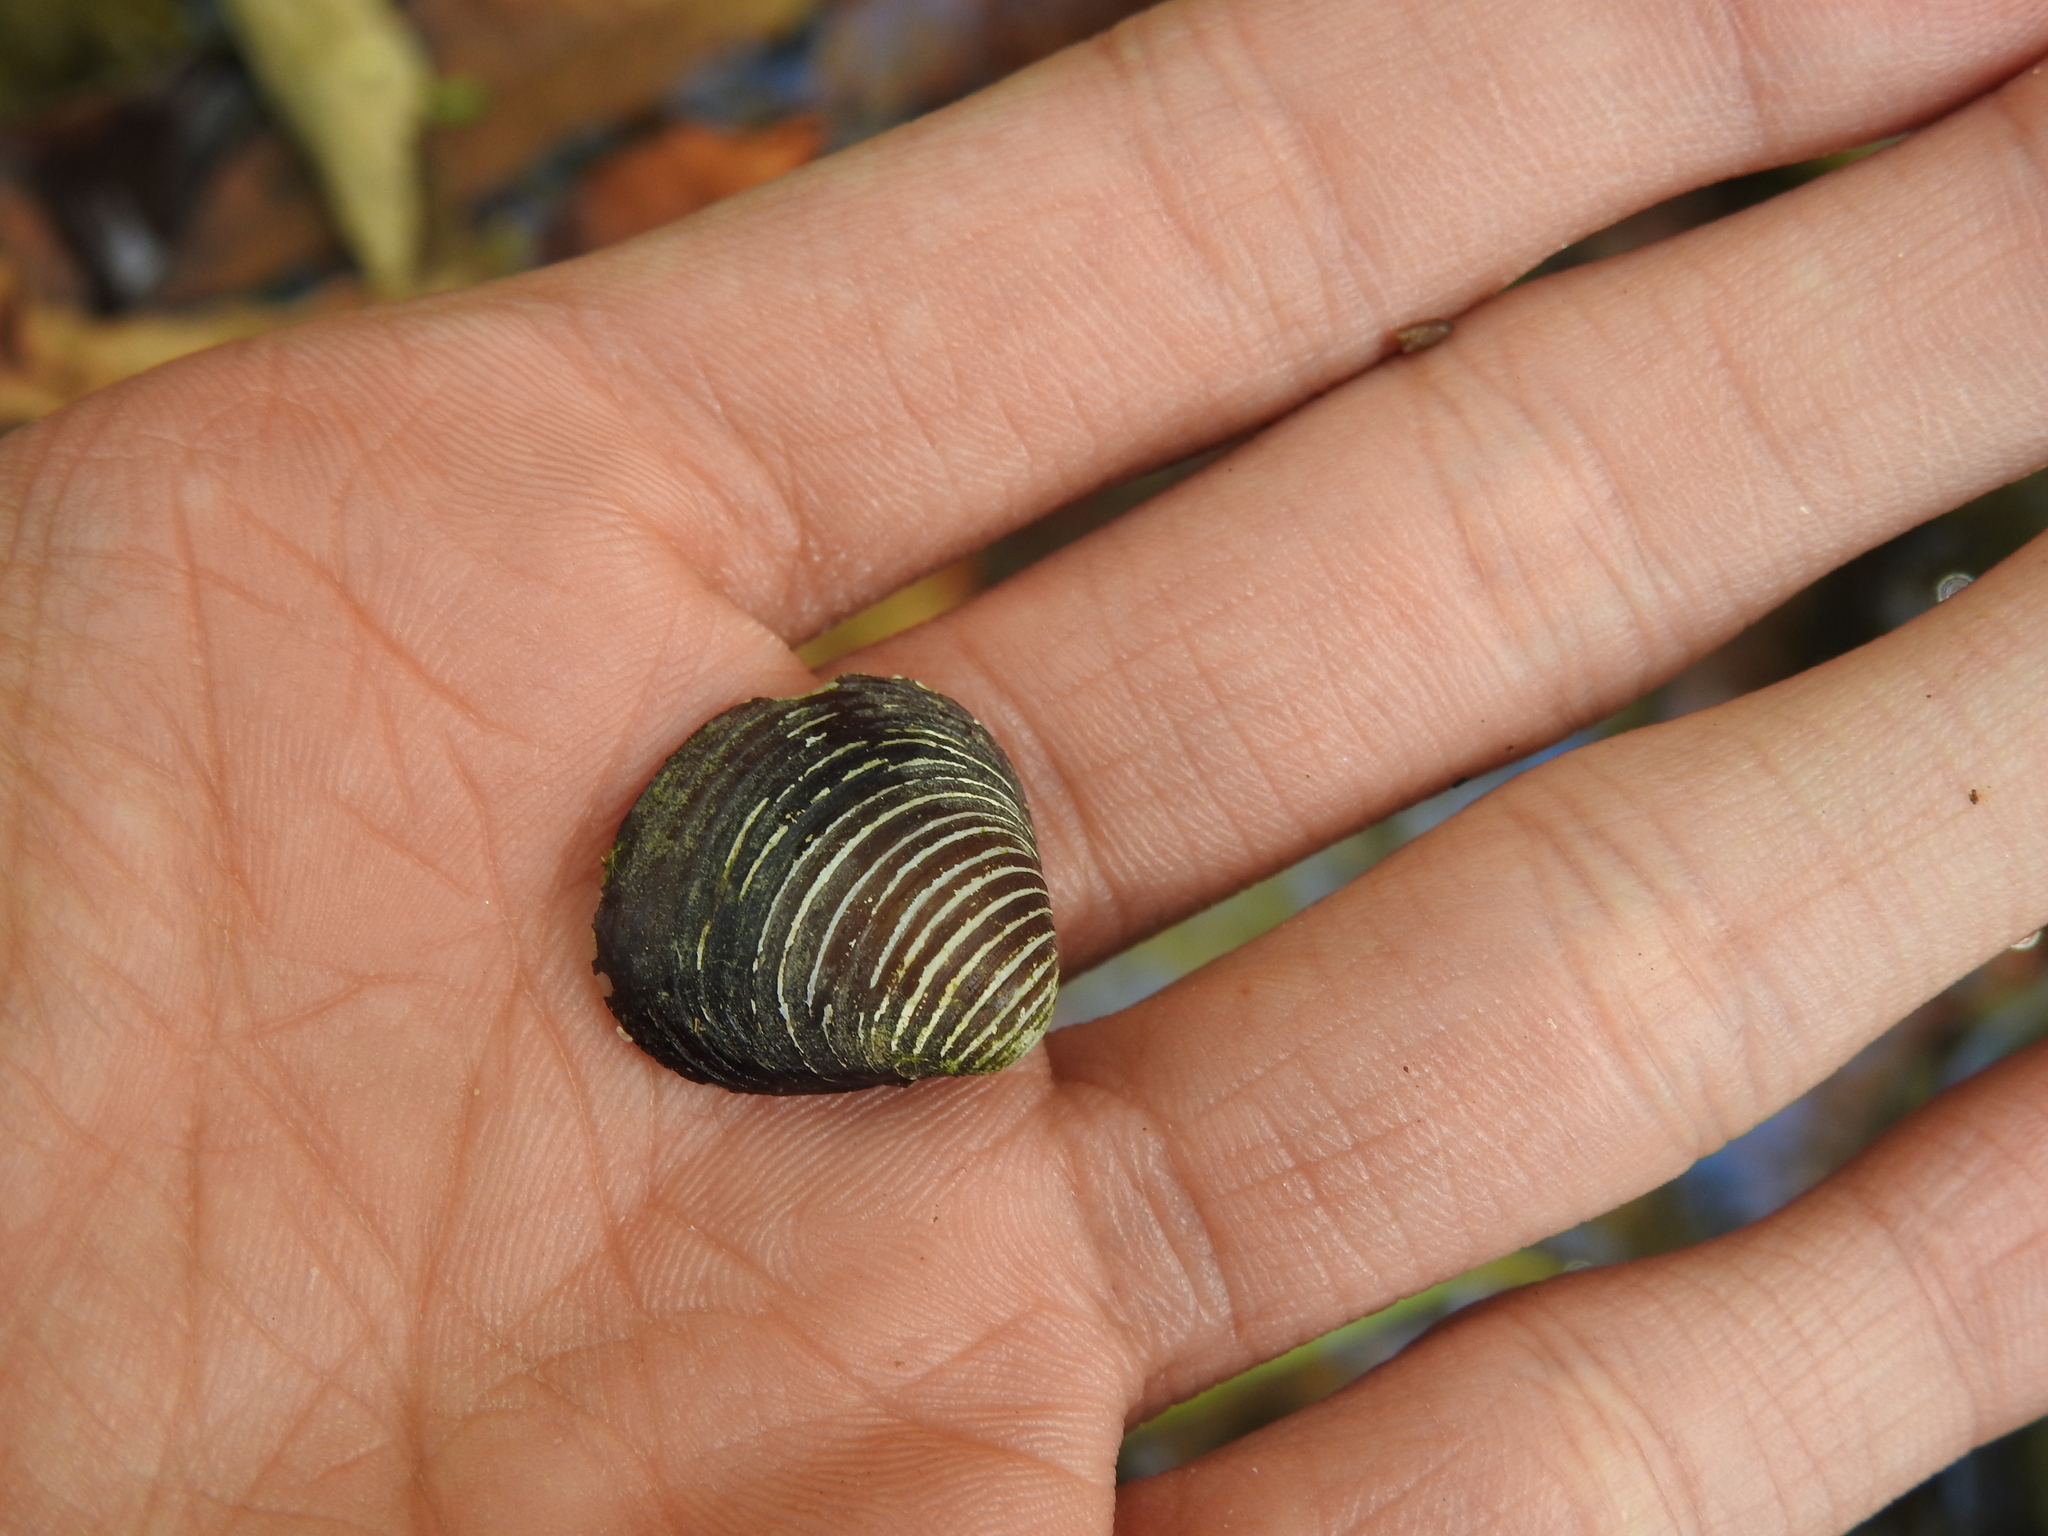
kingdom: Animalia
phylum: Mollusca
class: Bivalvia
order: Venerida
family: Cyrenidae
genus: Corbicula
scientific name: Corbicula fluminea
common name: Asian clam
